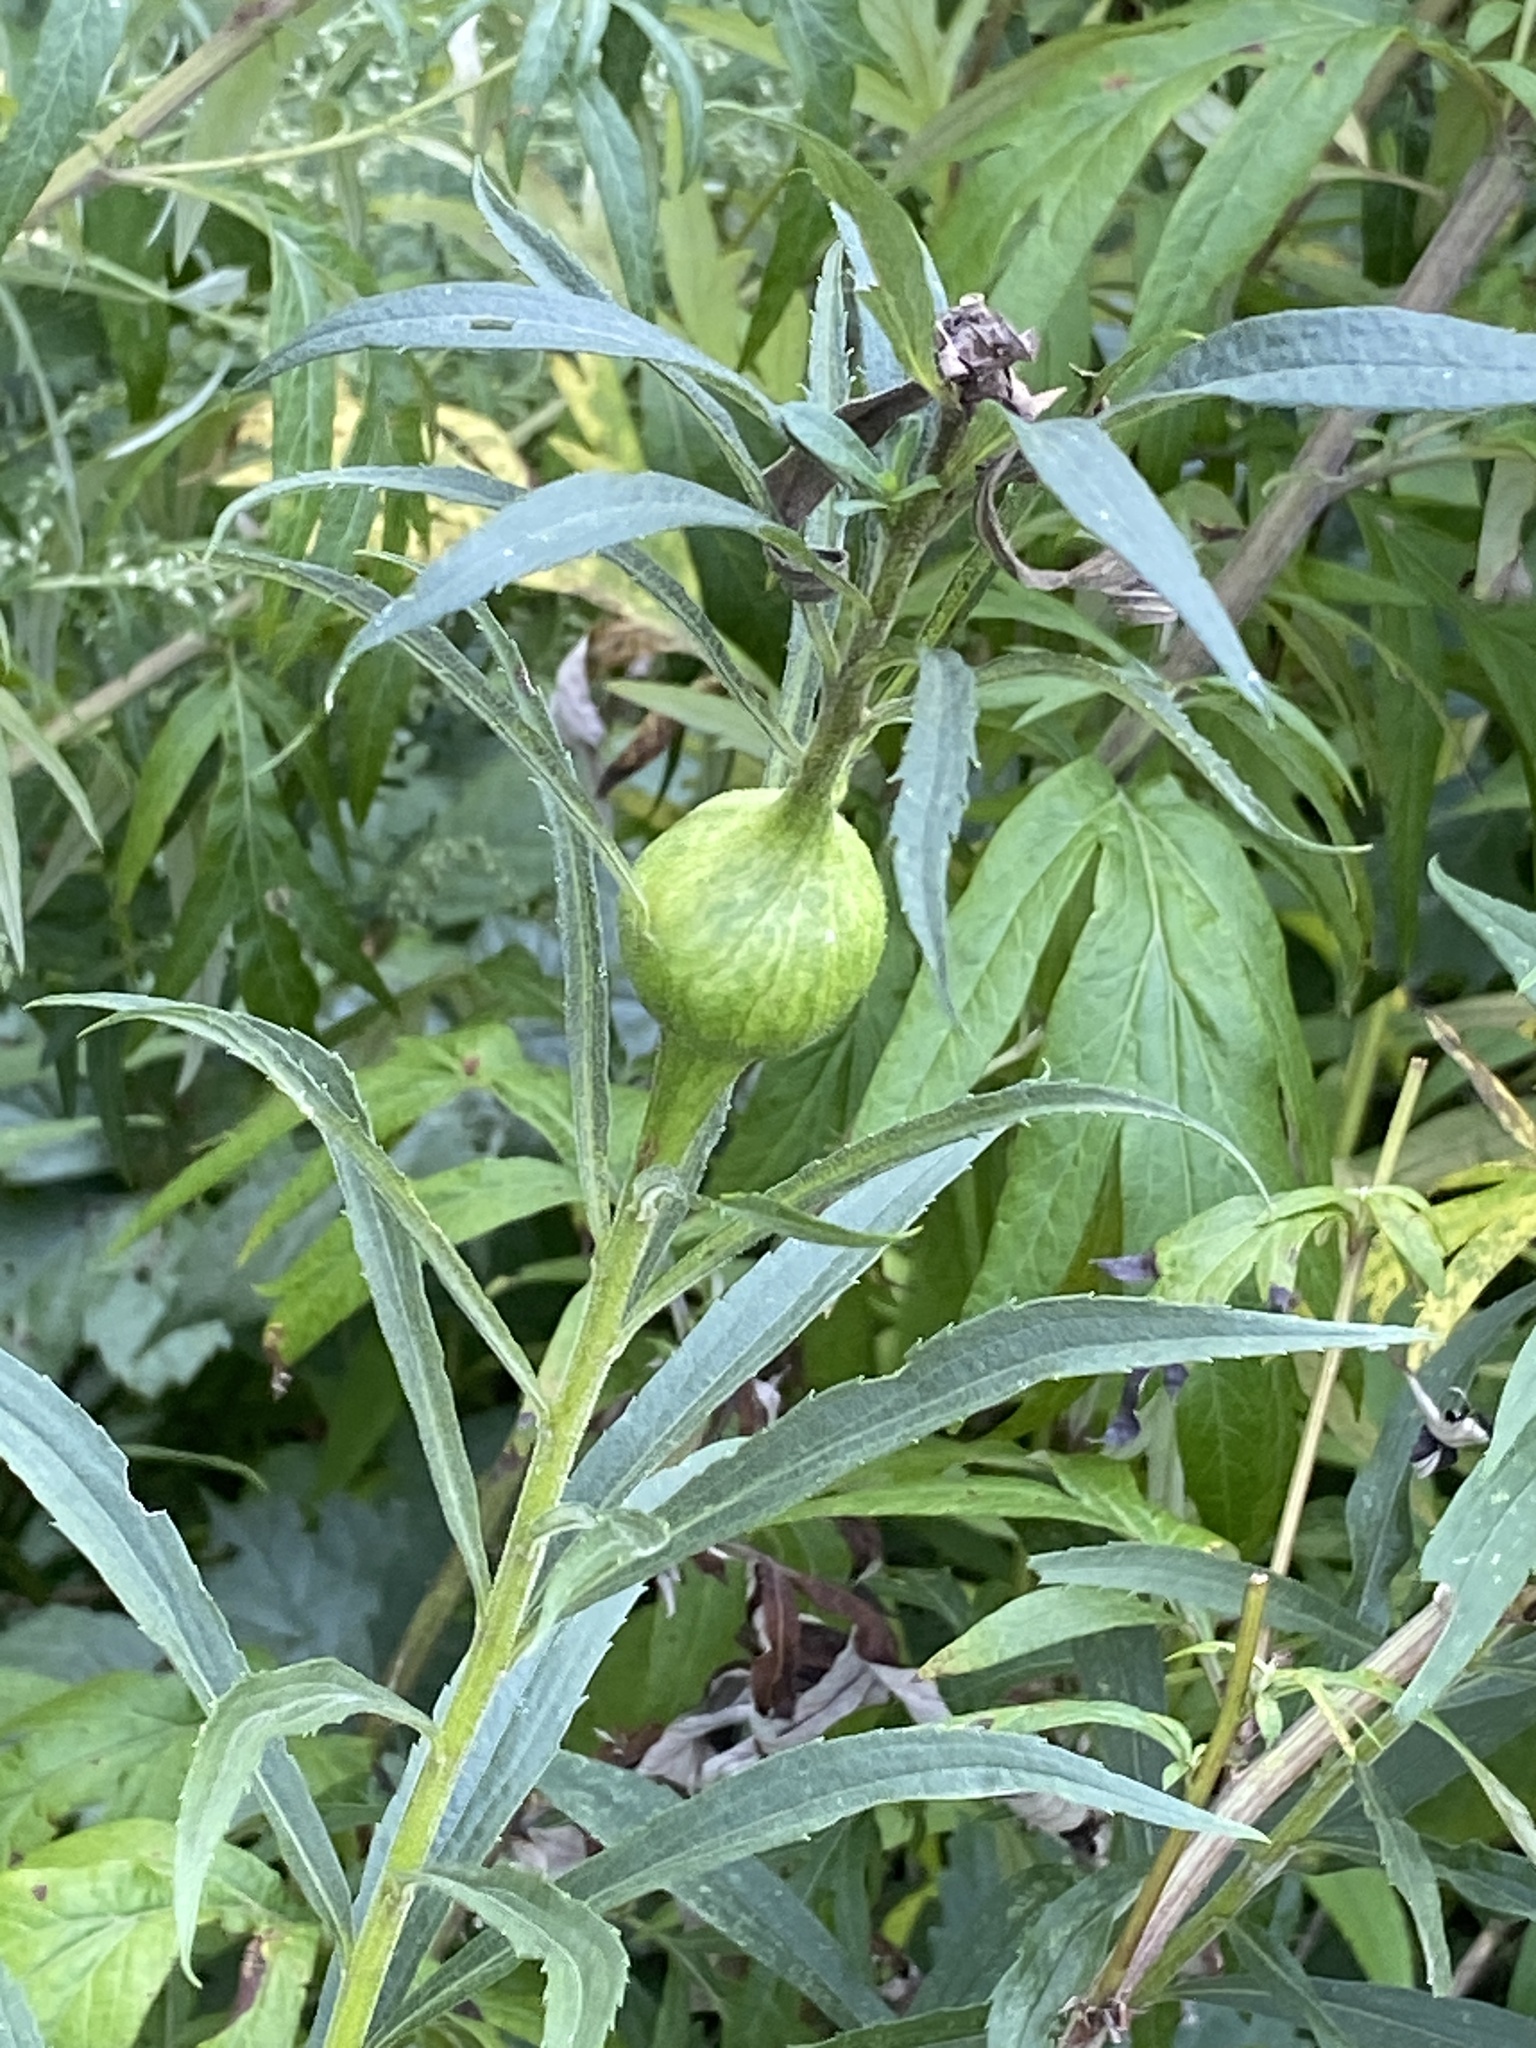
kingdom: Animalia
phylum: Arthropoda
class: Insecta
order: Diptera
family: Tephritidae
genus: Eurosta
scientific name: Eurosta solidaginis
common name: Goldenrod gall fly
